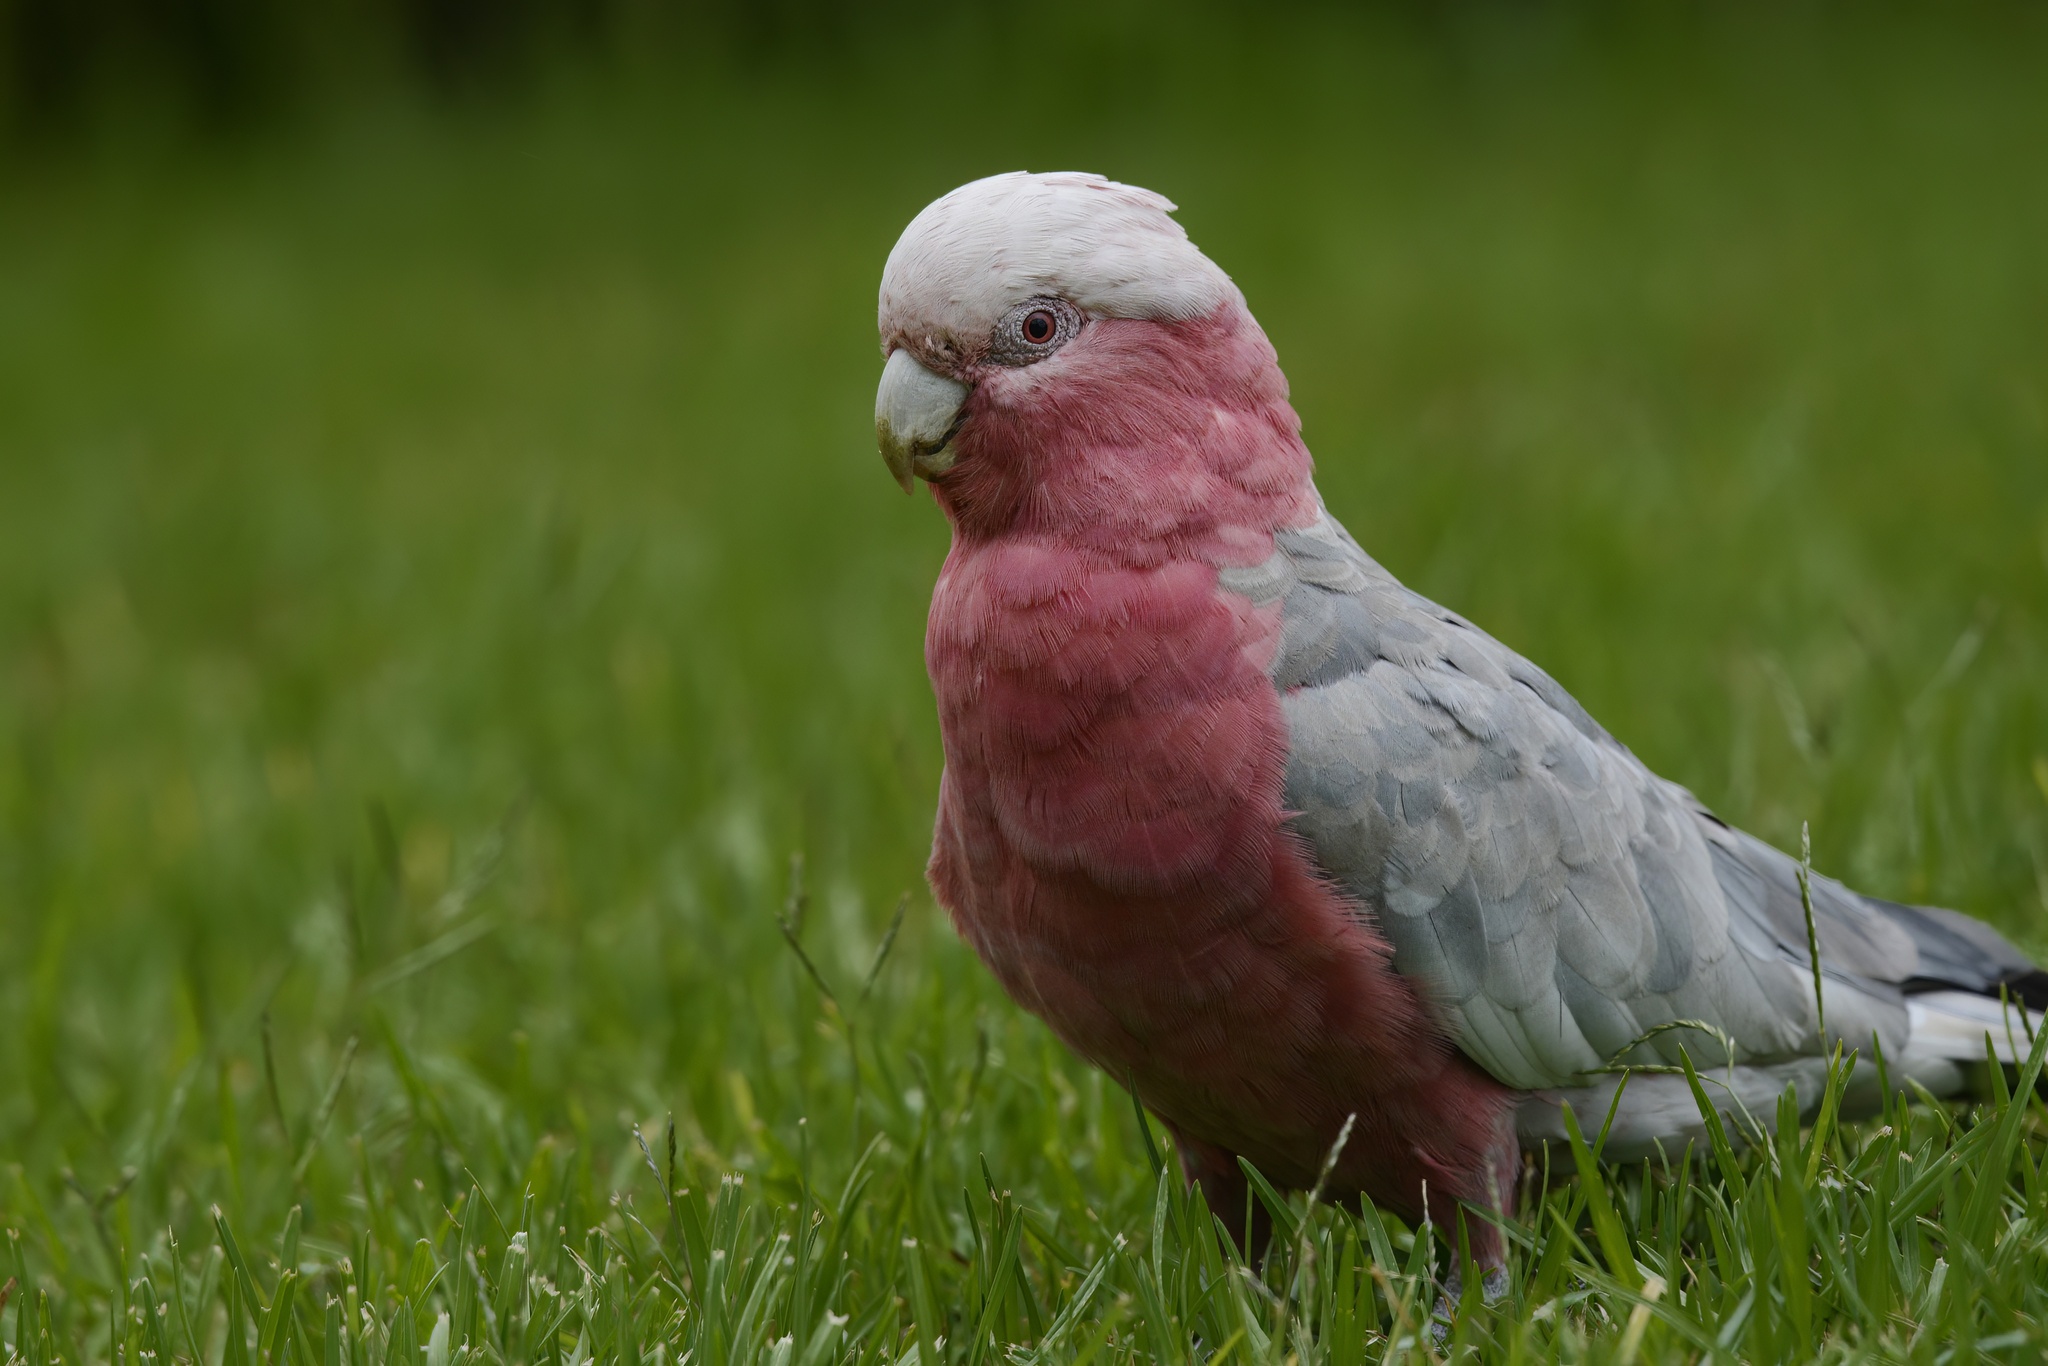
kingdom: Animalia
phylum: Chordata
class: Aves
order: Psittaciformes
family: Psittacidae
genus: Eolophus
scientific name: Eolophus roseicapilla
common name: Galah
